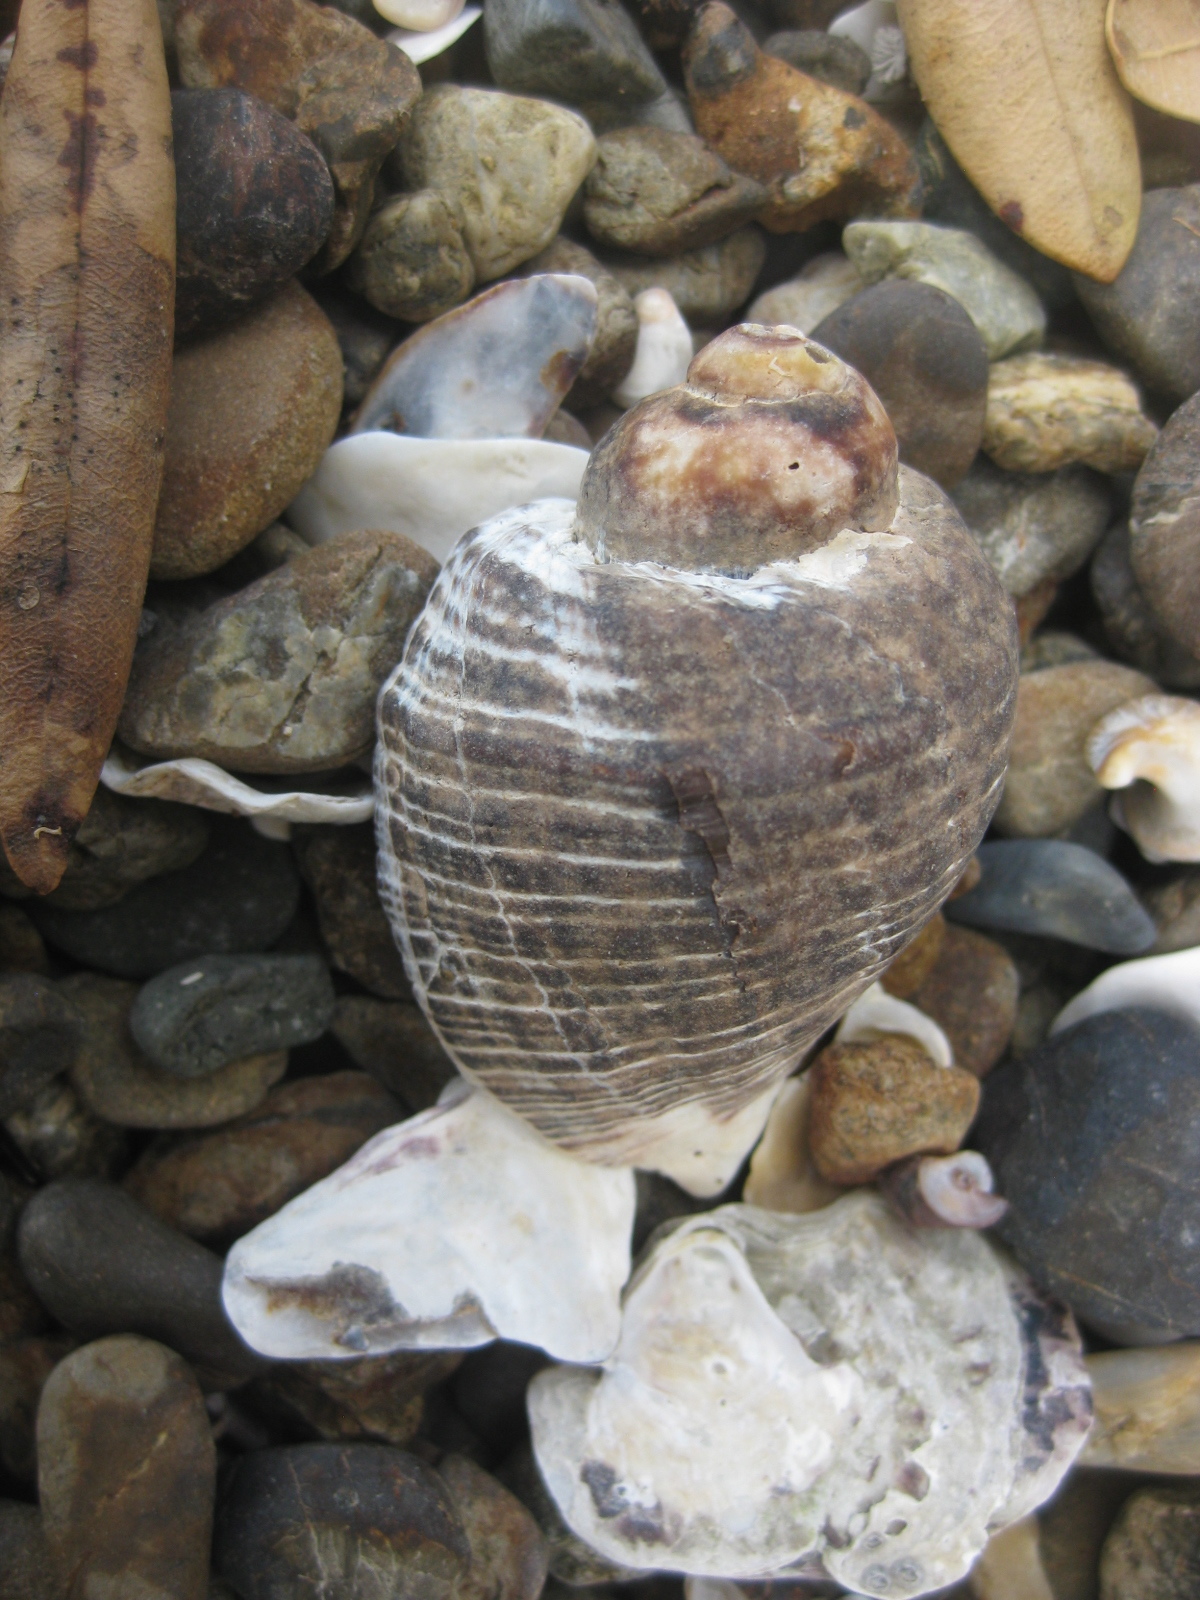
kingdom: Animalia
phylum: Mollusca
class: Gastropoda
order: Neogastropoda
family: Muricidae
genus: Haustrum
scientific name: Haustrum haustorium
